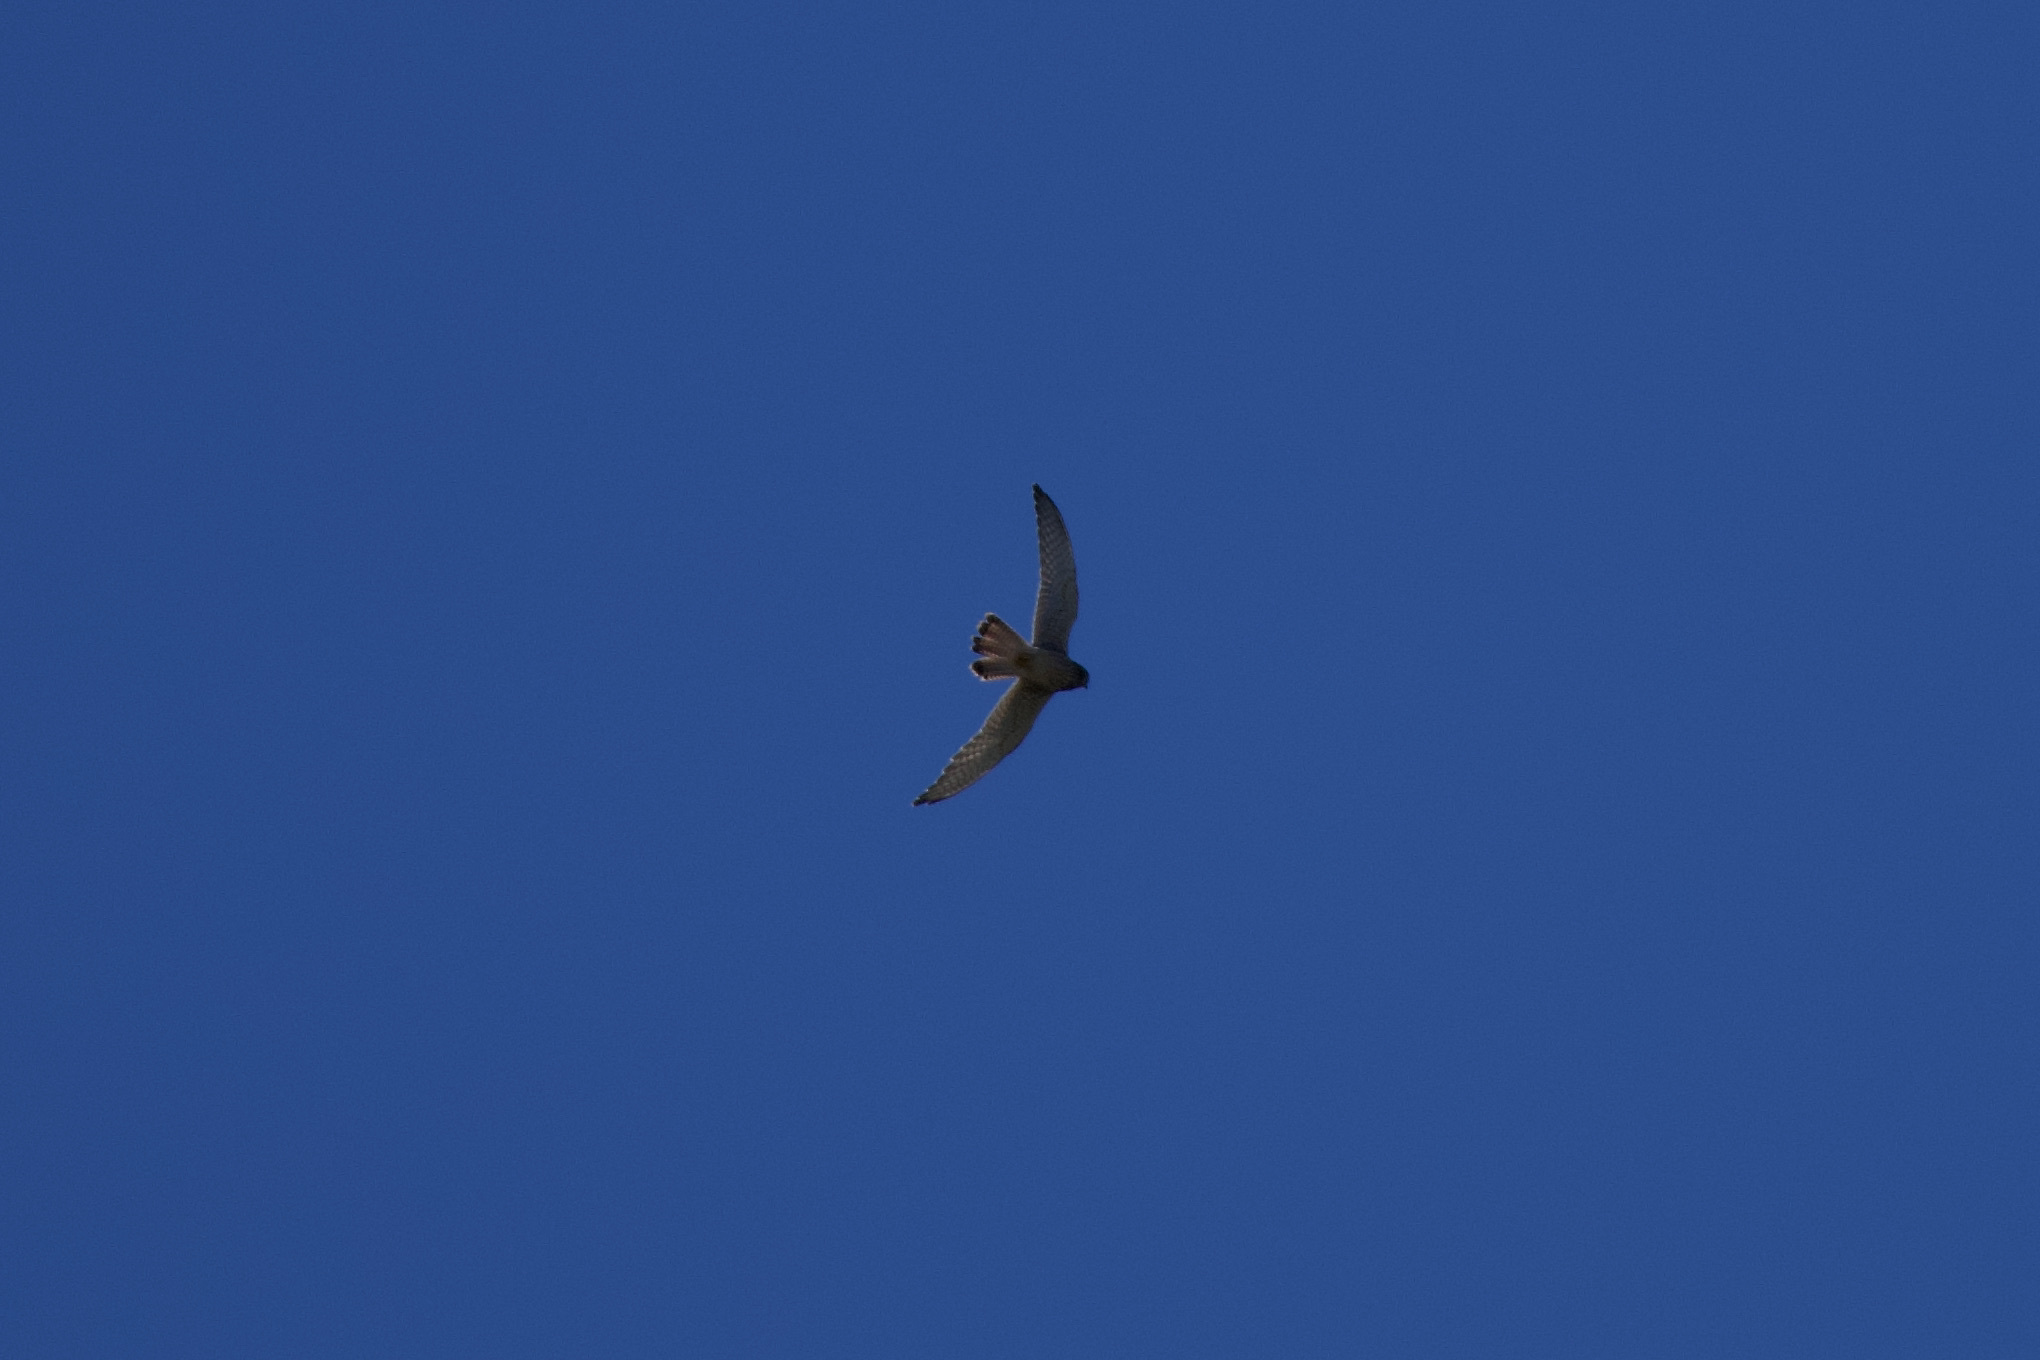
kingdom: Animalia
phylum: Chordata
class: Aves
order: Falconiformes
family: Falconidae
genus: Falco
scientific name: Falco tinnunculus
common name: Common kestrel
